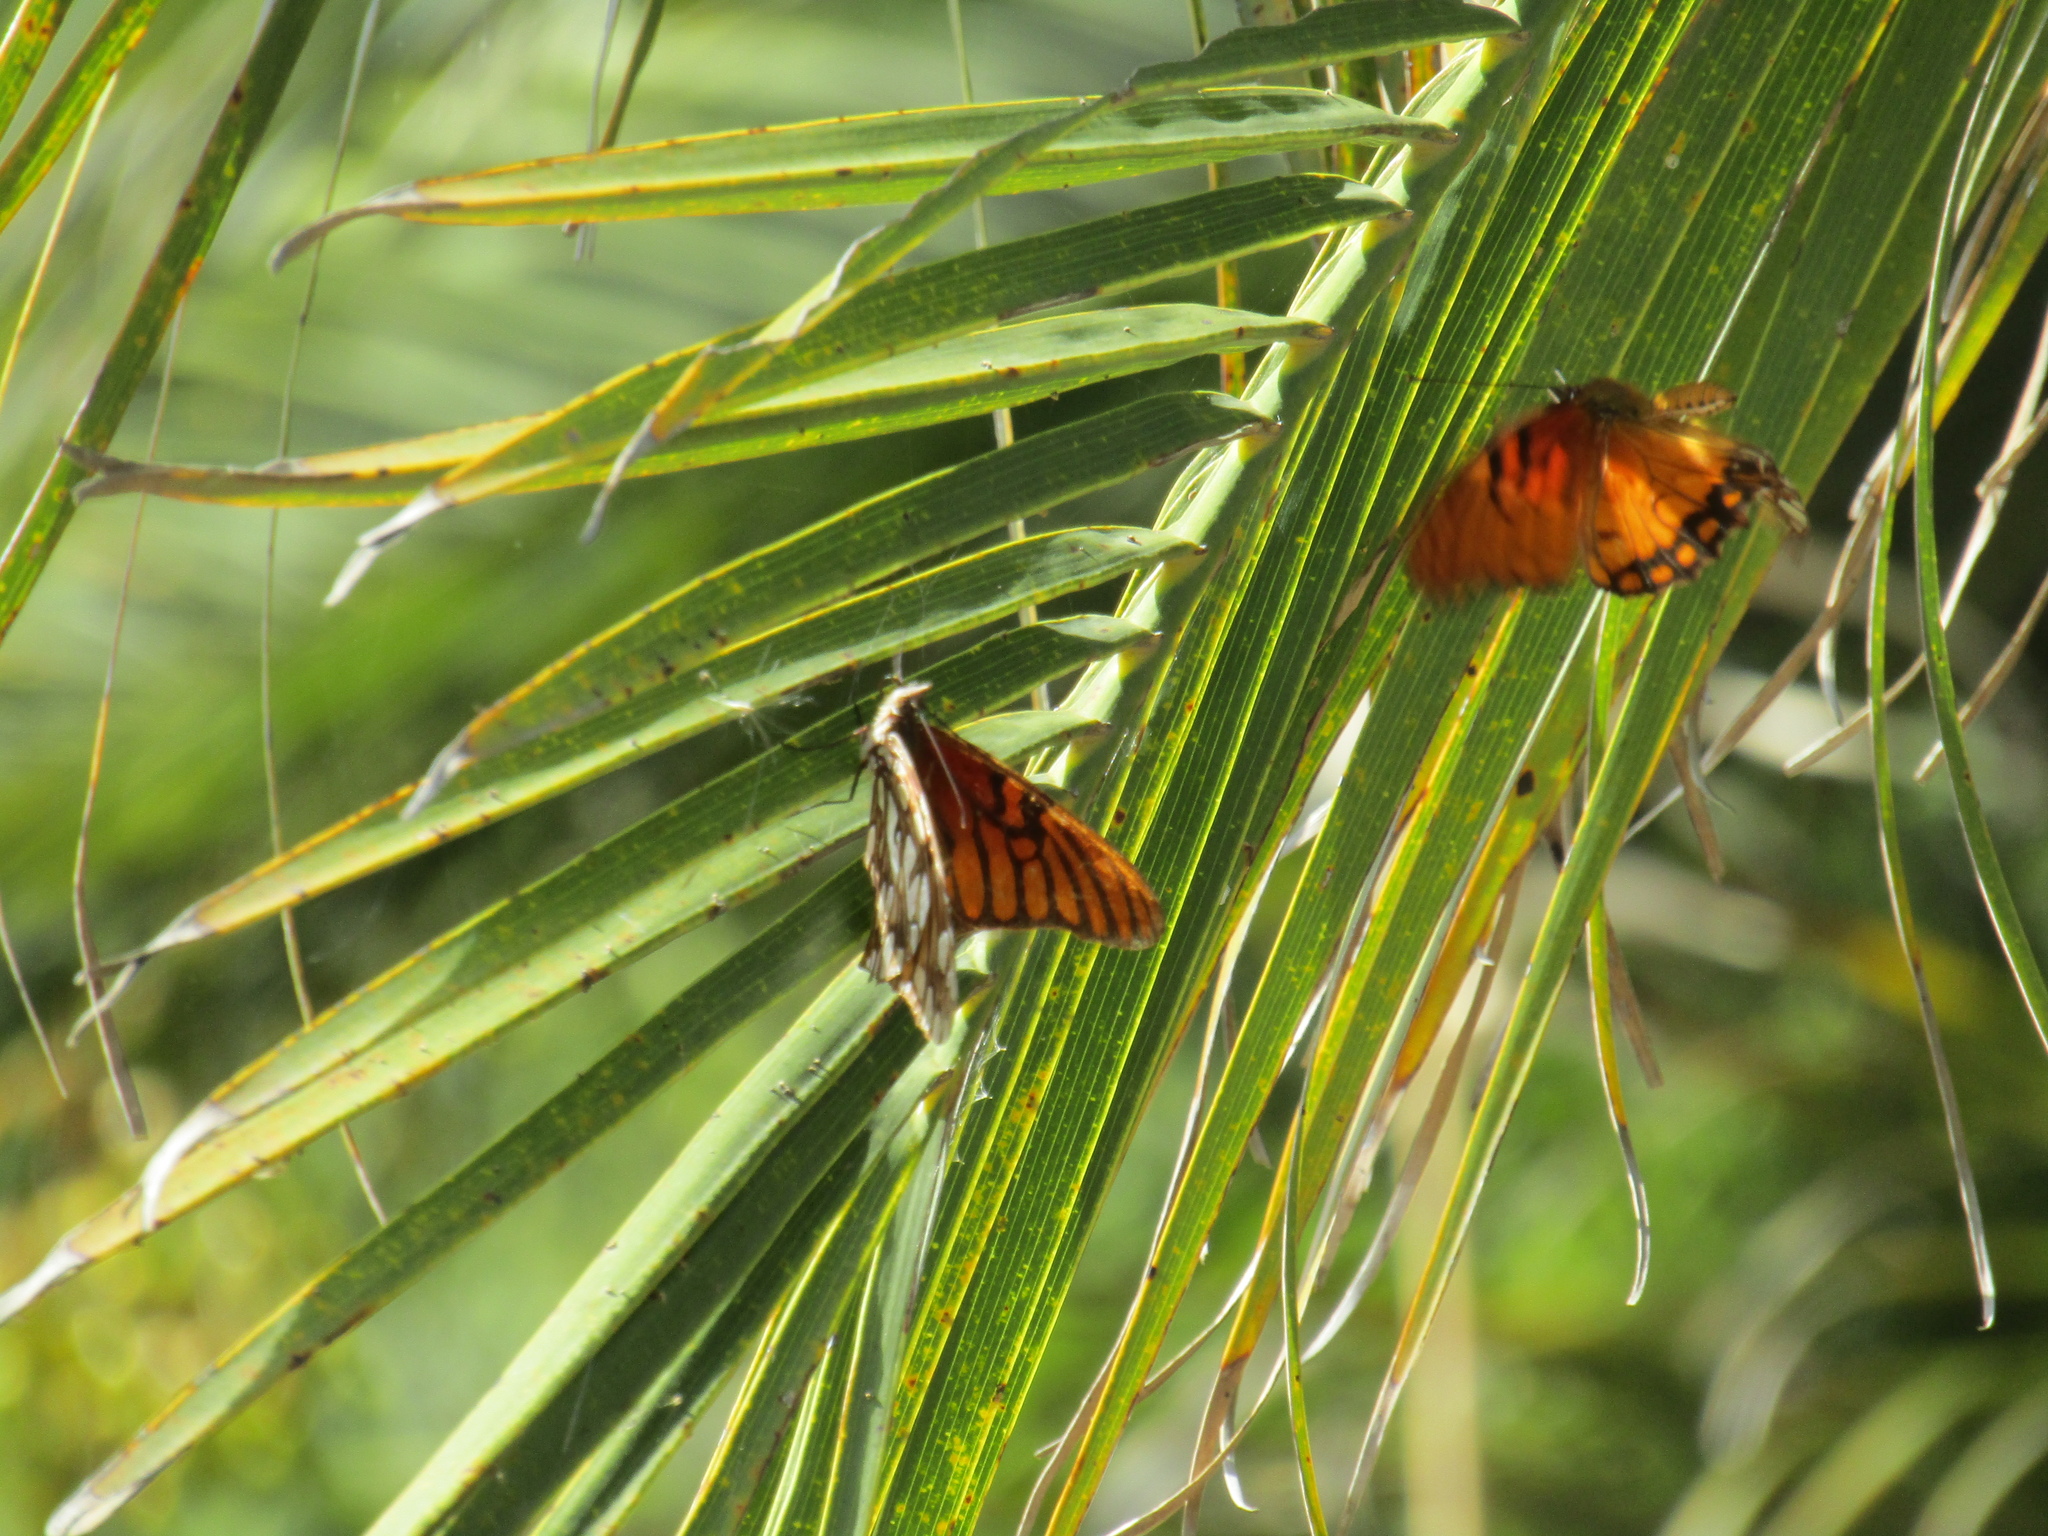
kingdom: Animalia
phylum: Arthropoda
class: Insecta
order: Lepidoptera
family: Nymphalidae
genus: Dione
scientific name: Dione moneta
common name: Mexican silverspot
